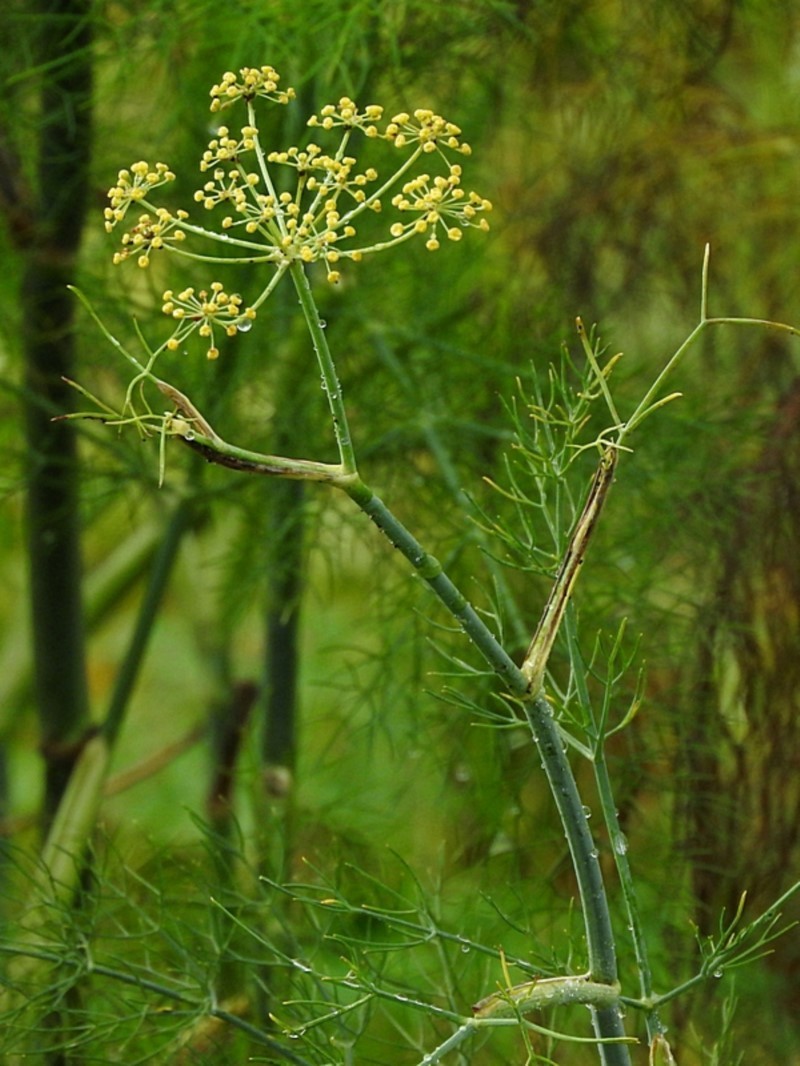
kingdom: Plantae
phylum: Tracheophyta
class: Magnoliopsida
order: Apiales
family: Apiaceae
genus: Foeniculum
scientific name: Foeniculum vulgare
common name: Fennel
